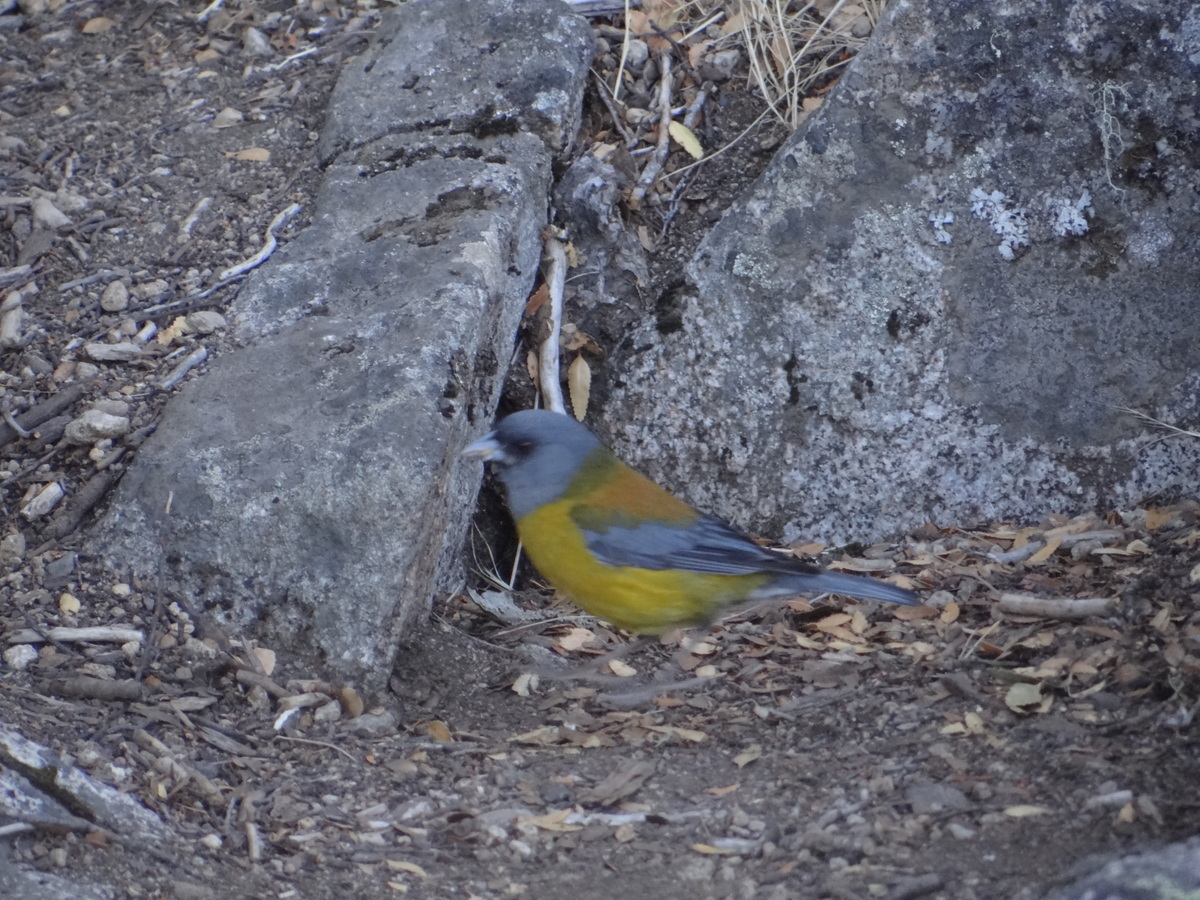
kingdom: Animalia
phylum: Chordata
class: Aves
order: Passeriformes
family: Thraupidae
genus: Phrygilus
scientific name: Phrygilus patagonicus
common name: Patagonian sierra finch
